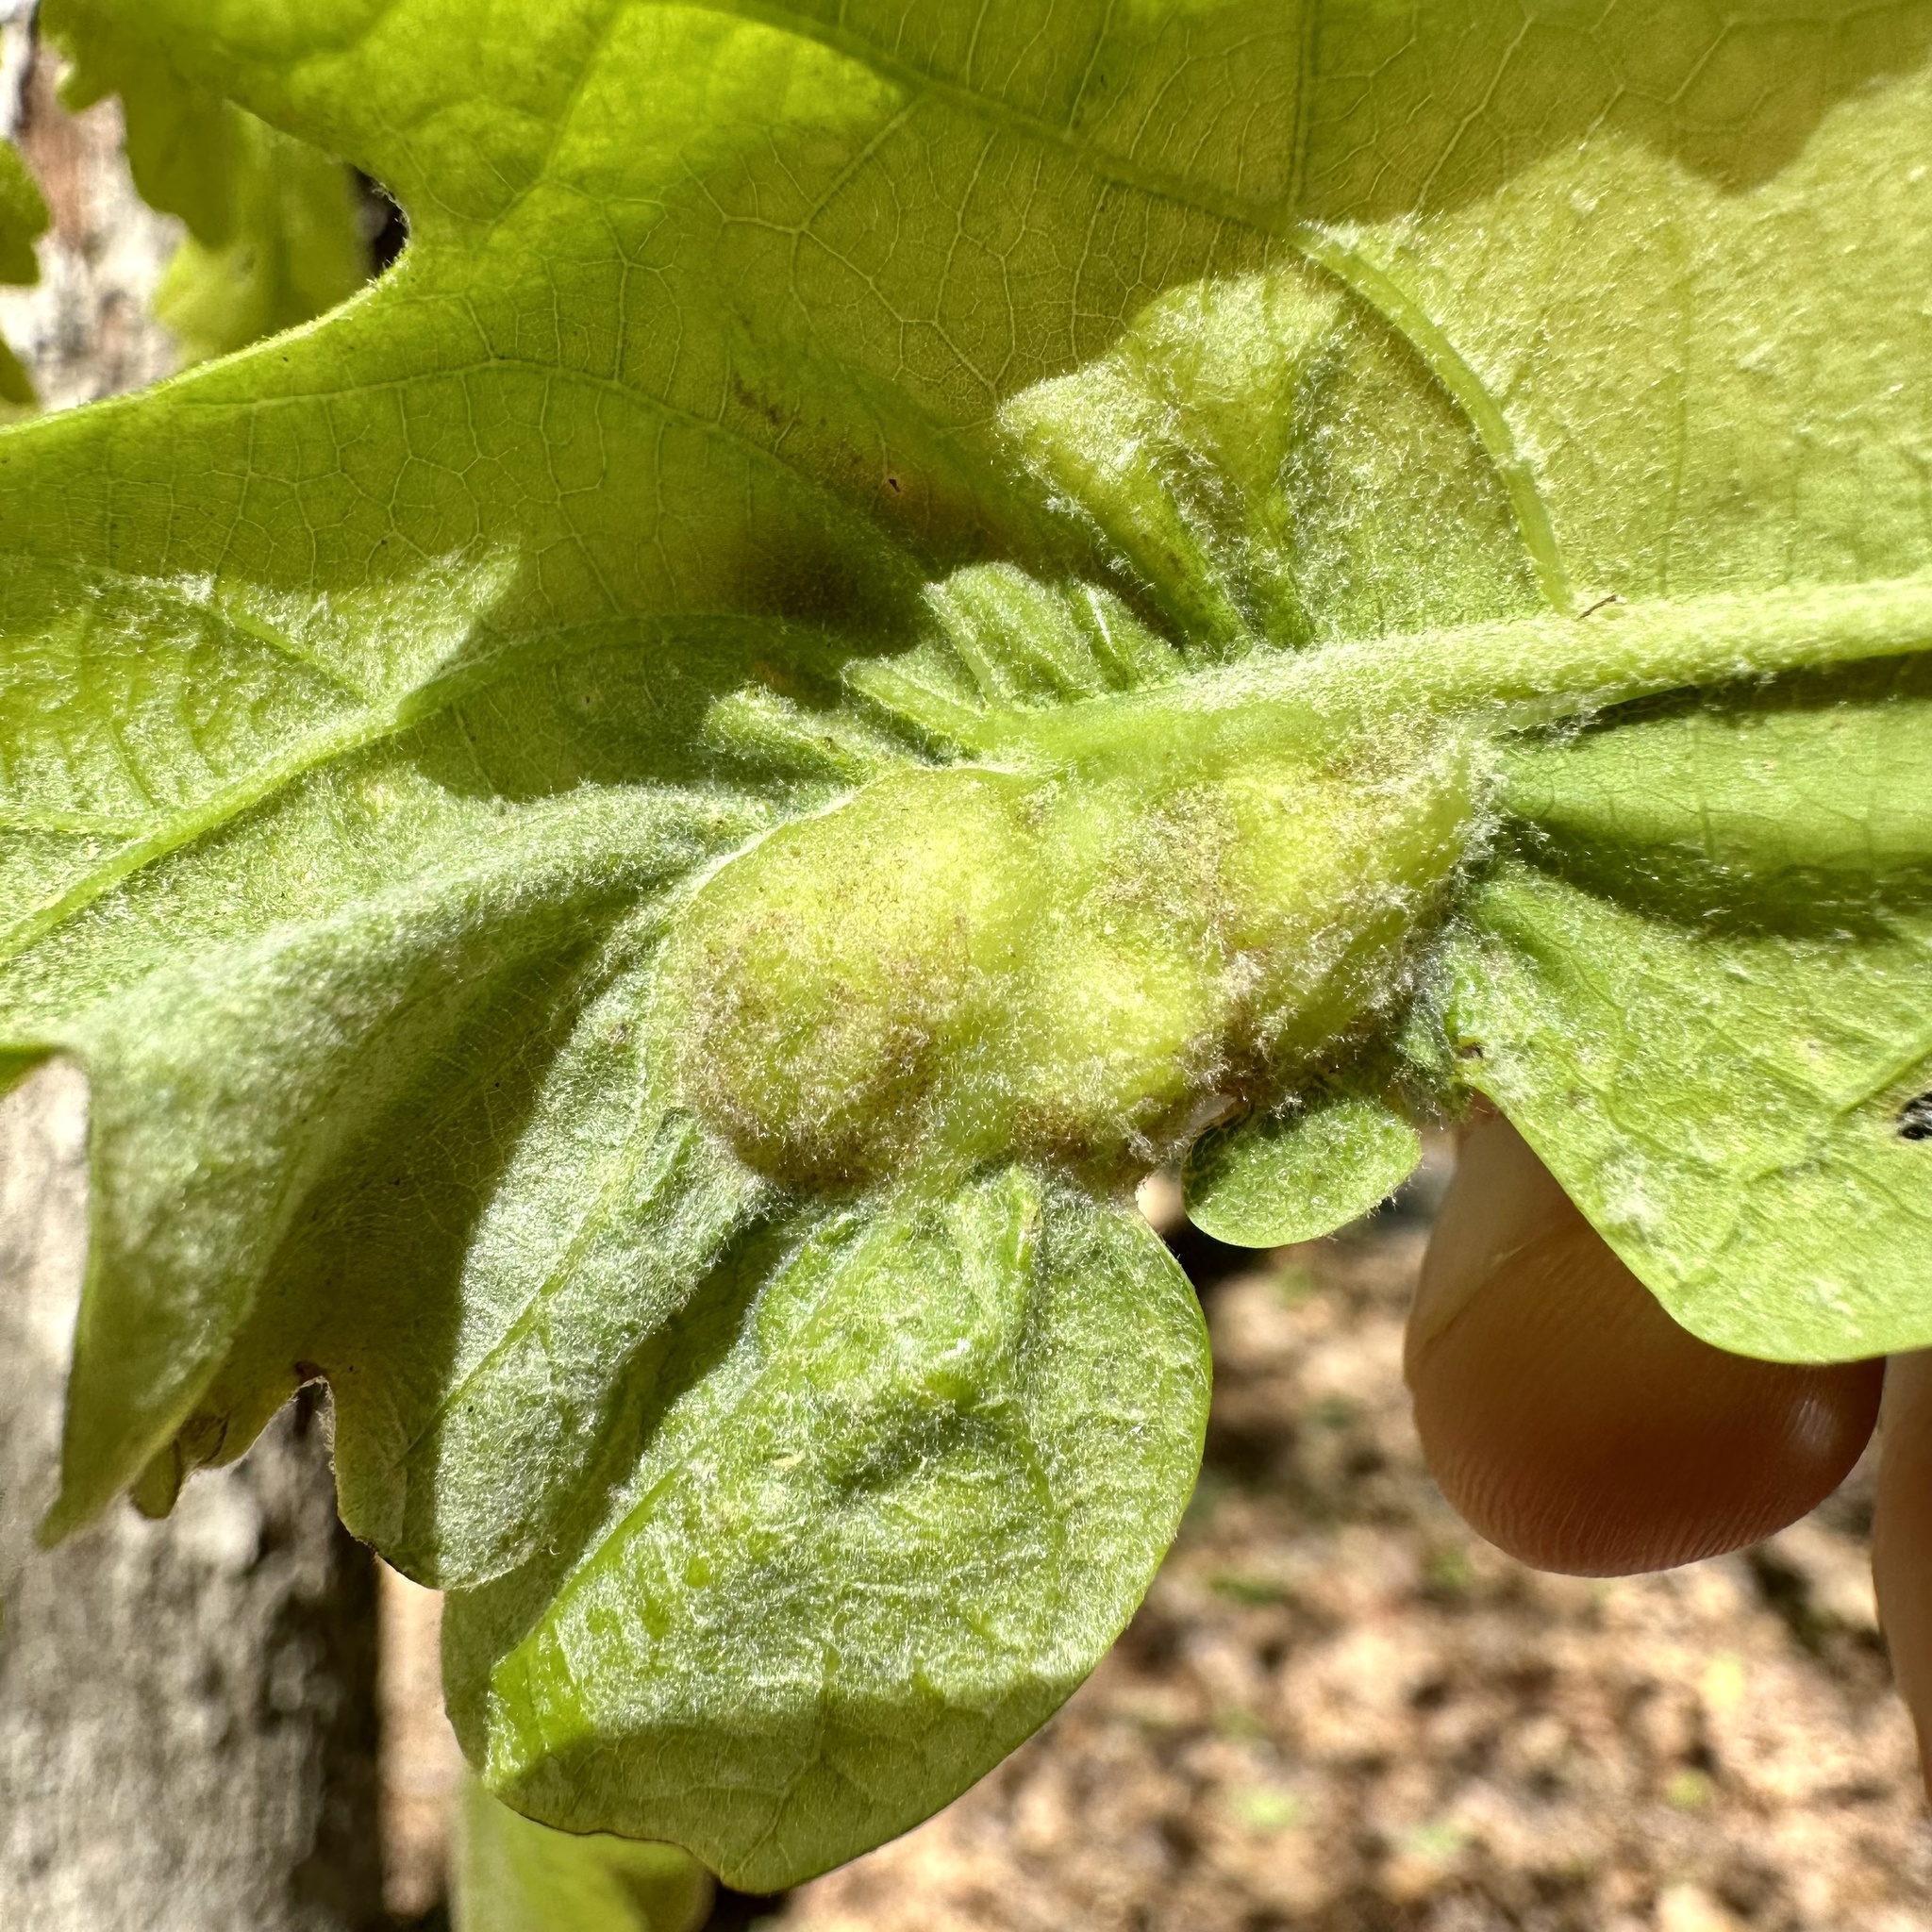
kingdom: Animalia
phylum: Arthropoda
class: Insecta
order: Hymenoptera
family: Cynipidae
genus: Neuroterus
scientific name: Neuroterus quercusirregularis
